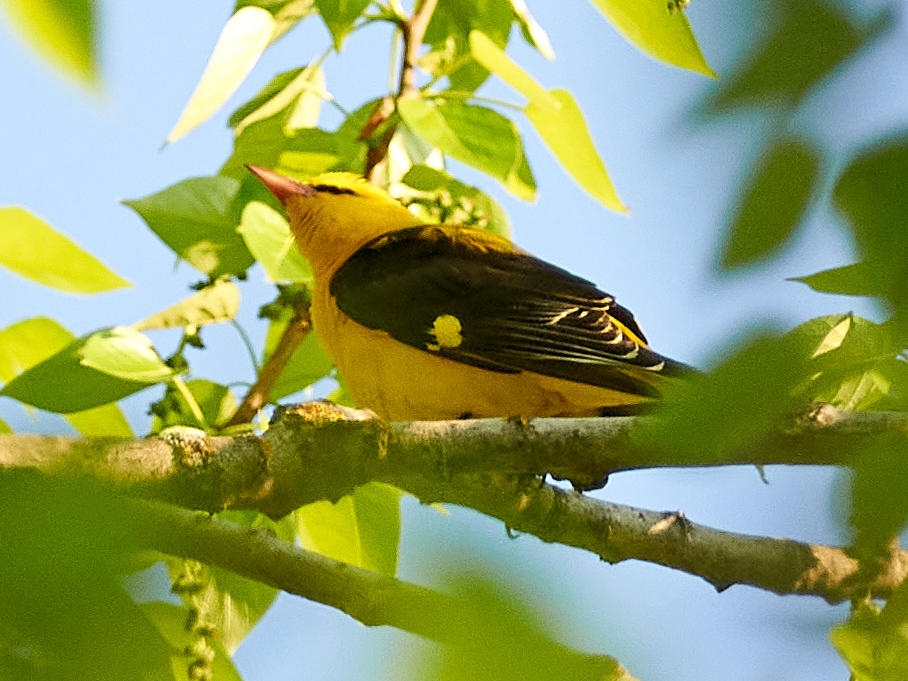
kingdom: Animalia
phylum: Chordata
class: Aves
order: Passeriformes
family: Oriolidae
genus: Oriolus
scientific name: Oriolus oriolus
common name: Eurasian golden oriole
